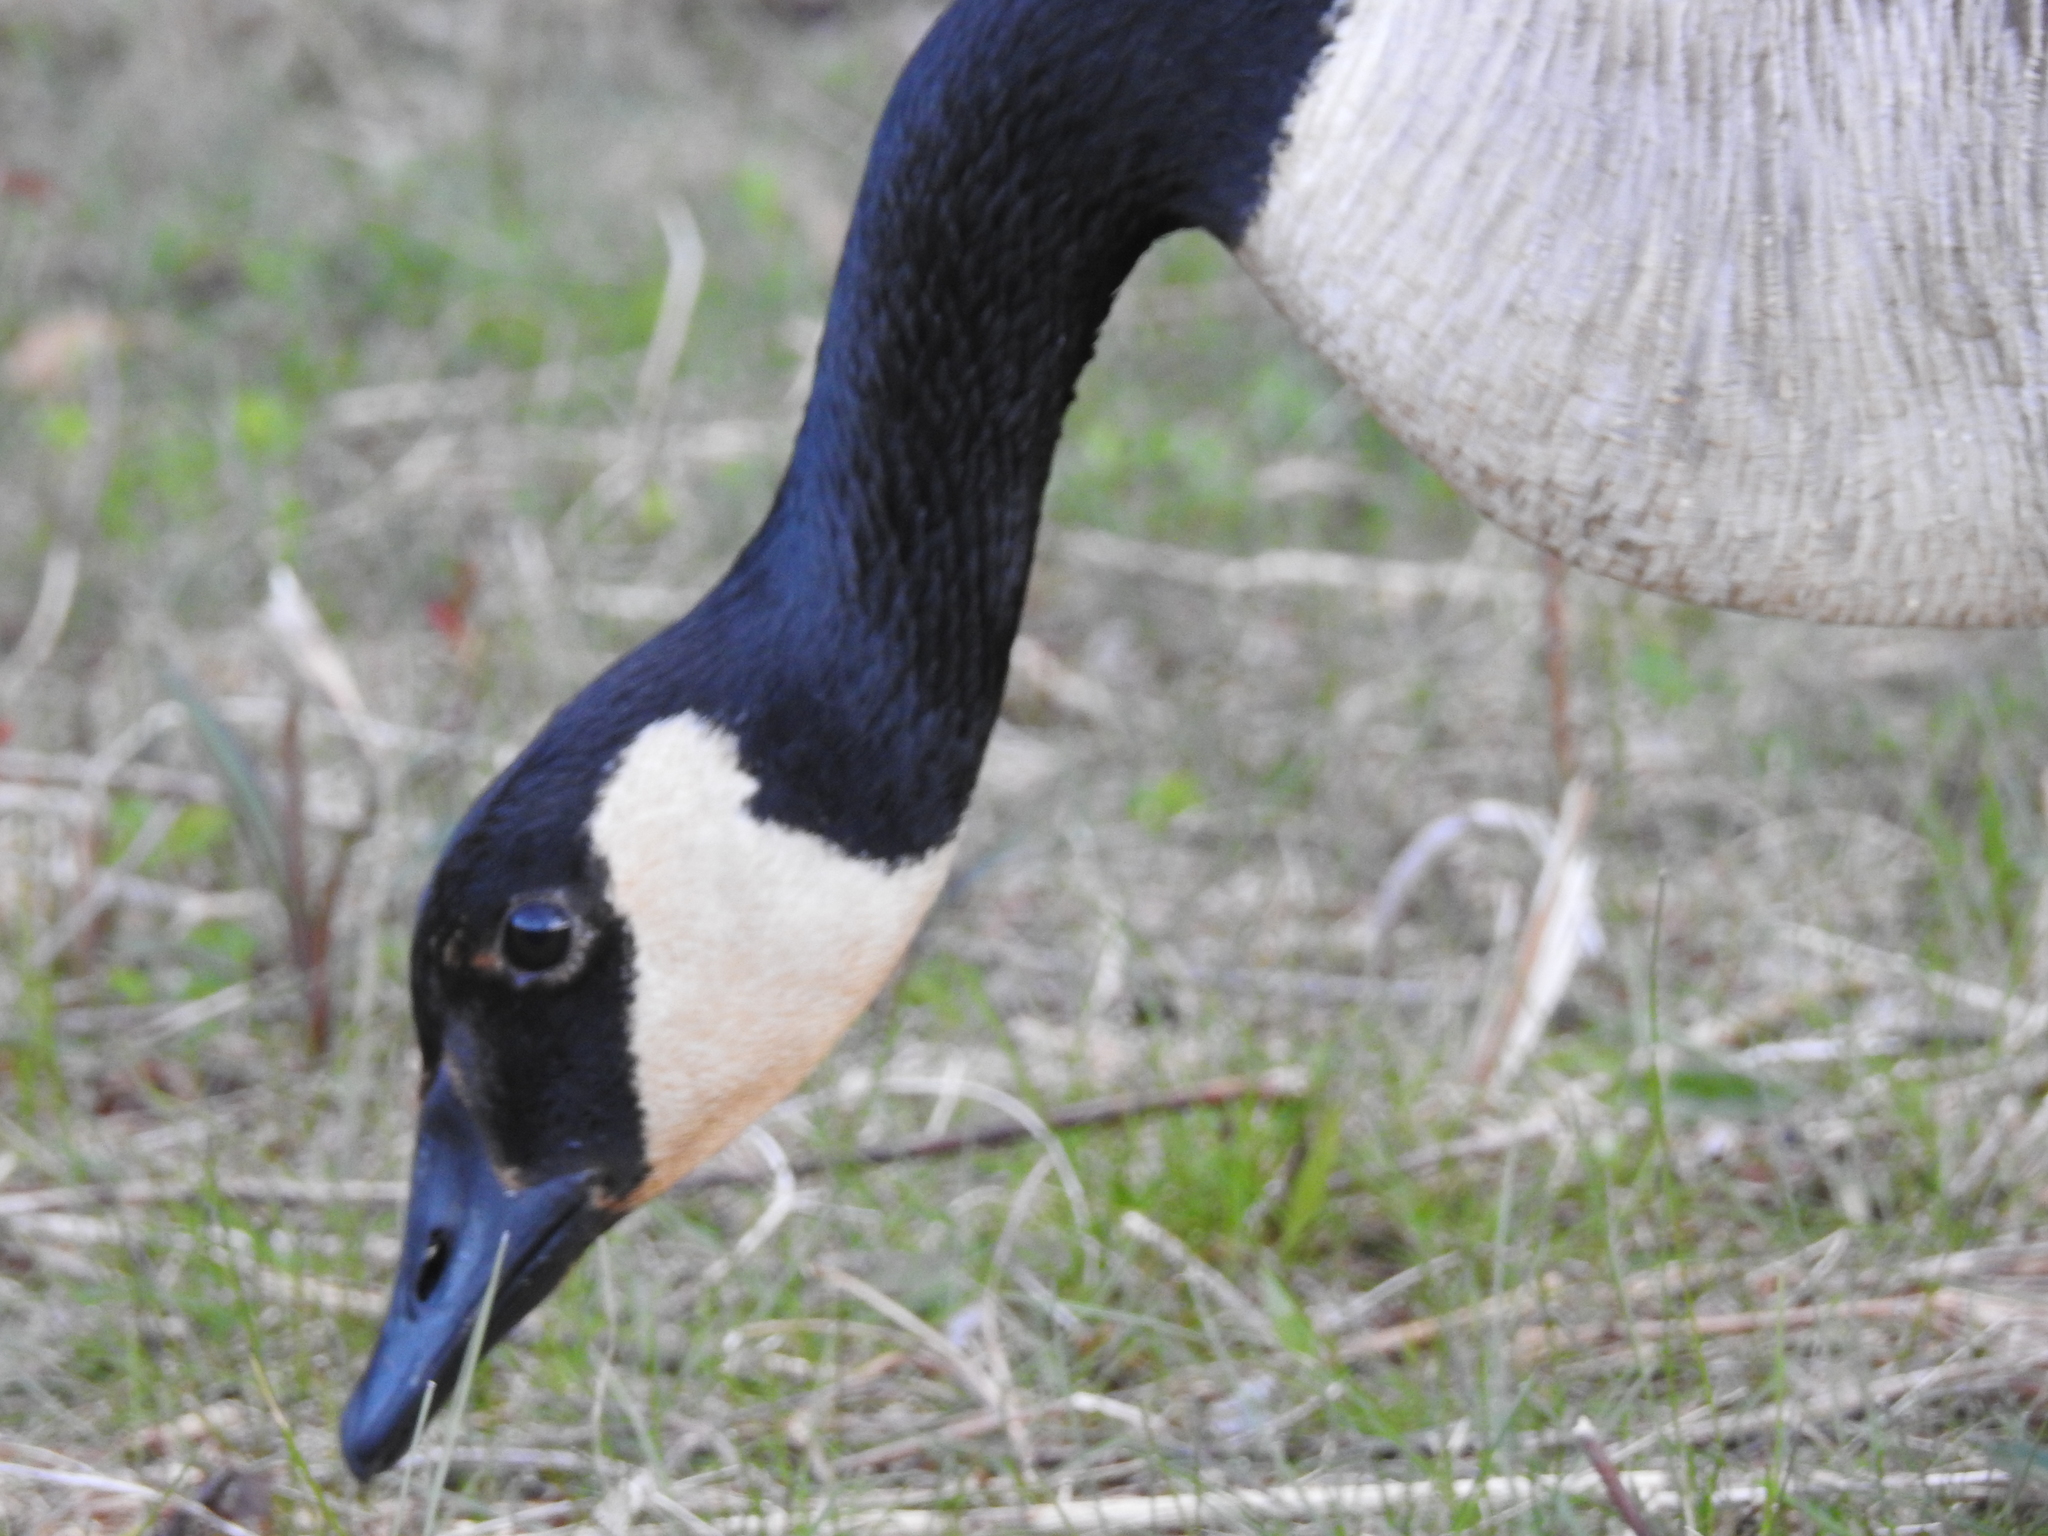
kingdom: Animalia
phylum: Chordata
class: Aves
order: Anseriformes
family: Anatidae
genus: Branta
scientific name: Branta canadensis
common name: Canada goose
